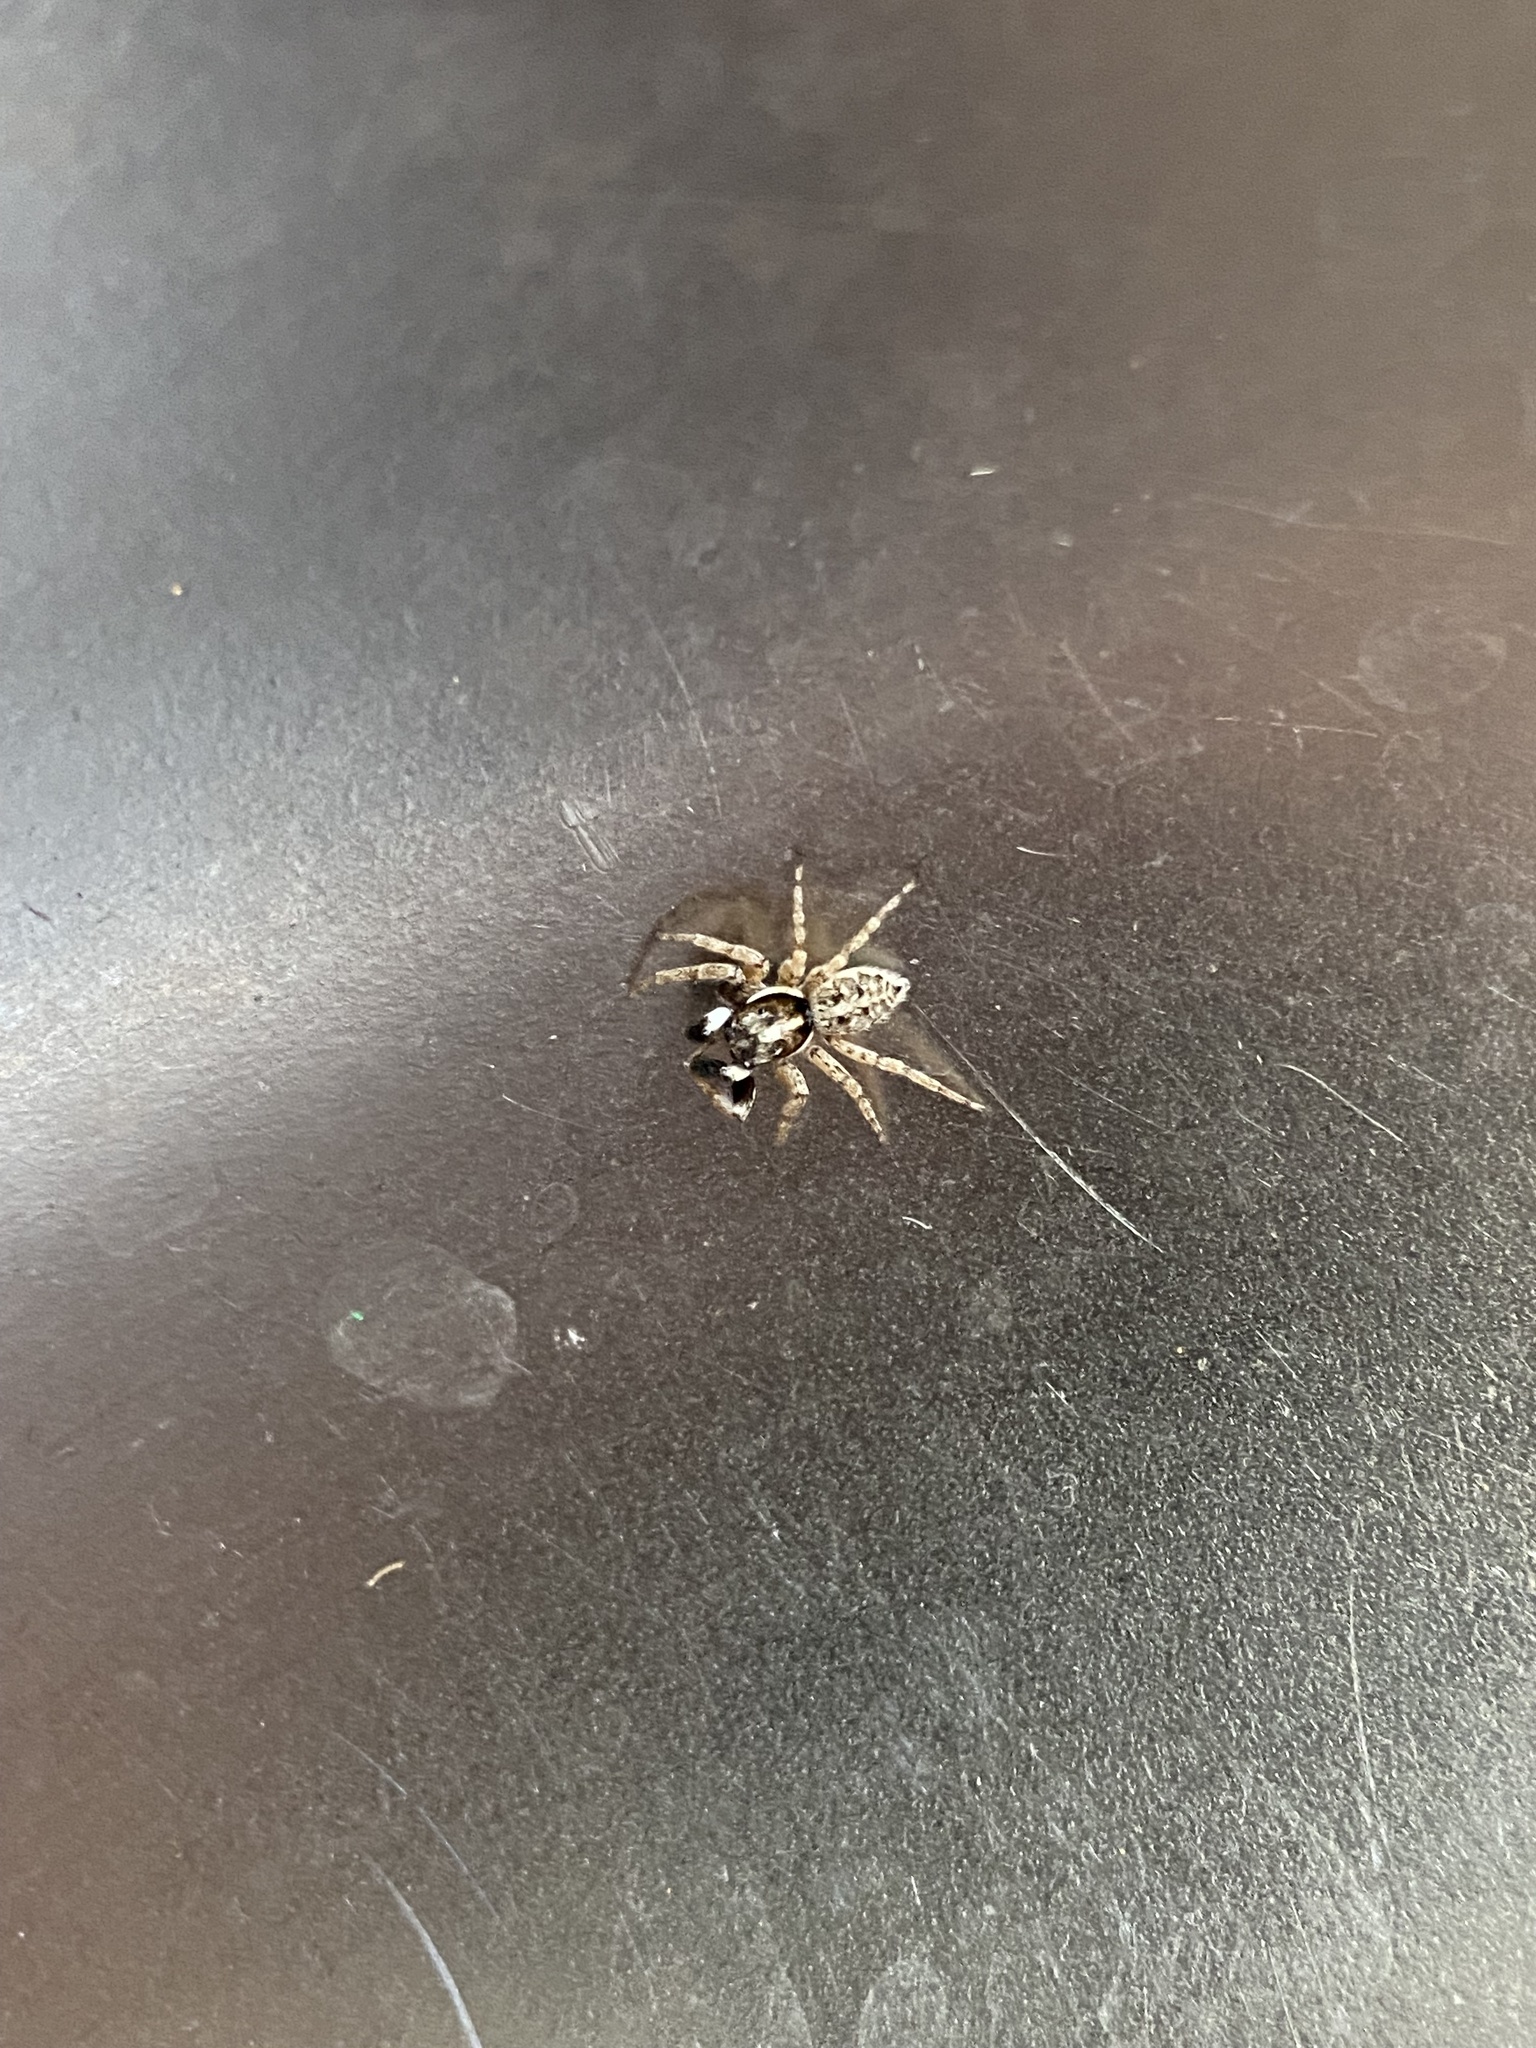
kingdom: Animalia
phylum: Arthropoda
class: Arachnida
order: Araneae
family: Salticidae
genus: Menemerus
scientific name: Menemerus semilimbatus
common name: Jumping spider
